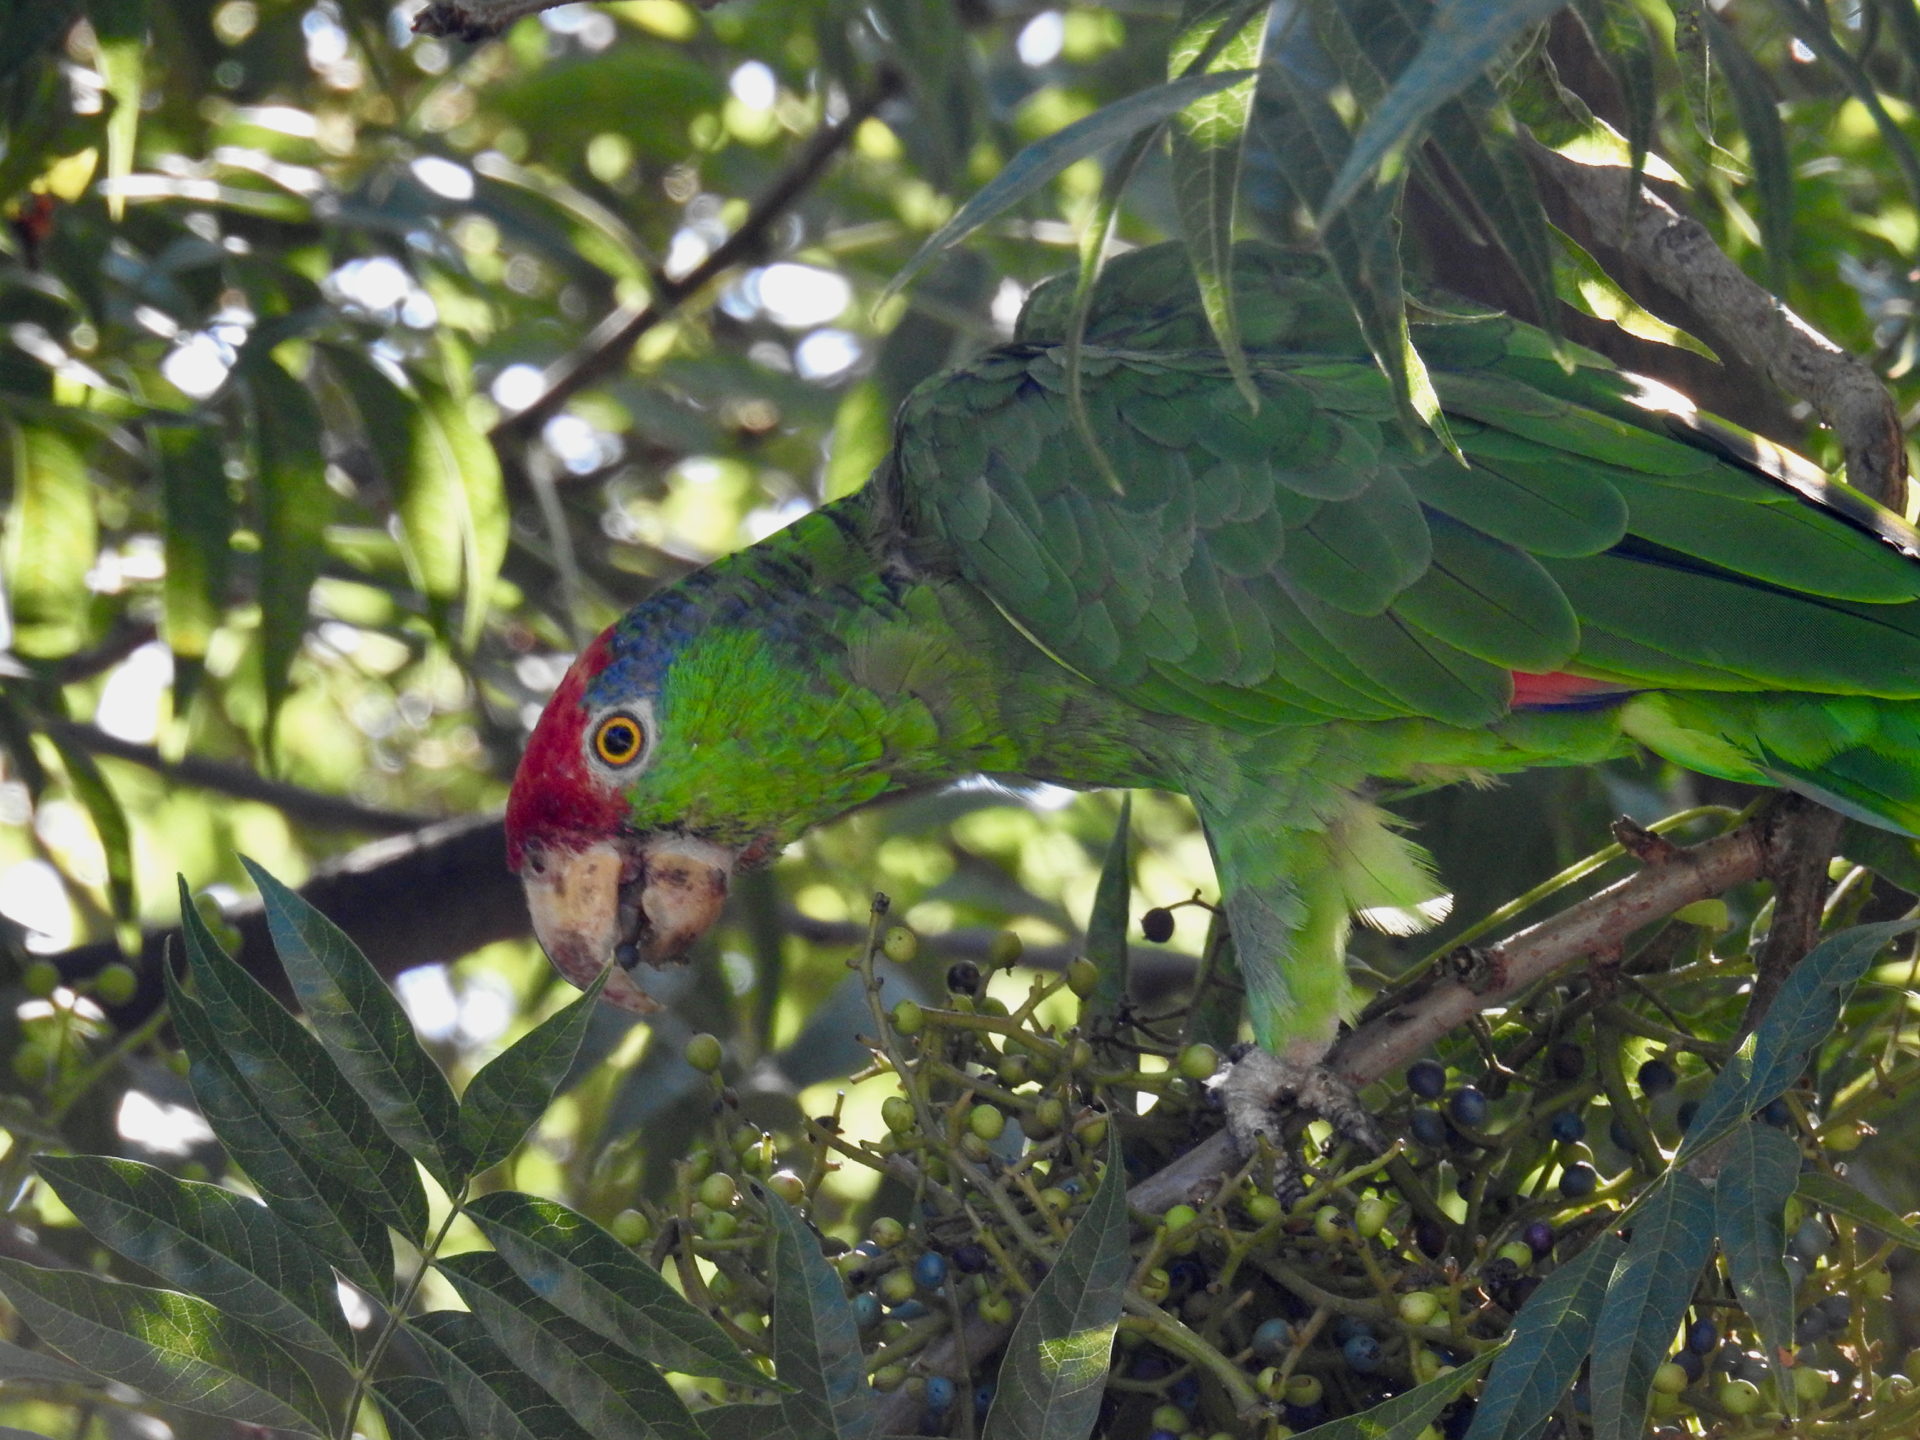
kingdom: Animalia
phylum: Chordata
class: Aves
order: Psittaciformes
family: Psittacidae
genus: Amazona
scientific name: Amazona viridigenalis
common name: Red-crowned amazon
